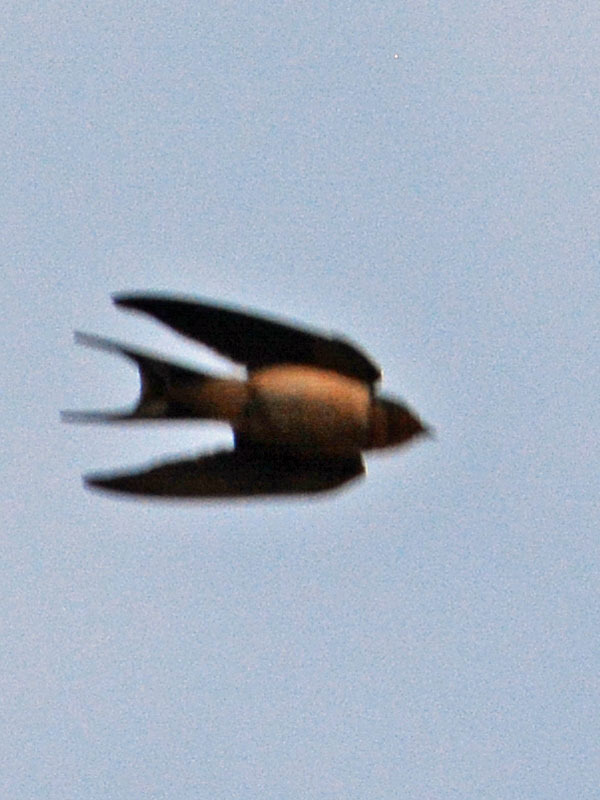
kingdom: Animalia
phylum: Chordata
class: Aves
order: Passeriformes
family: Hirundinidae
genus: Hirundo
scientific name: Hirundo rustica
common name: Barn swallow
